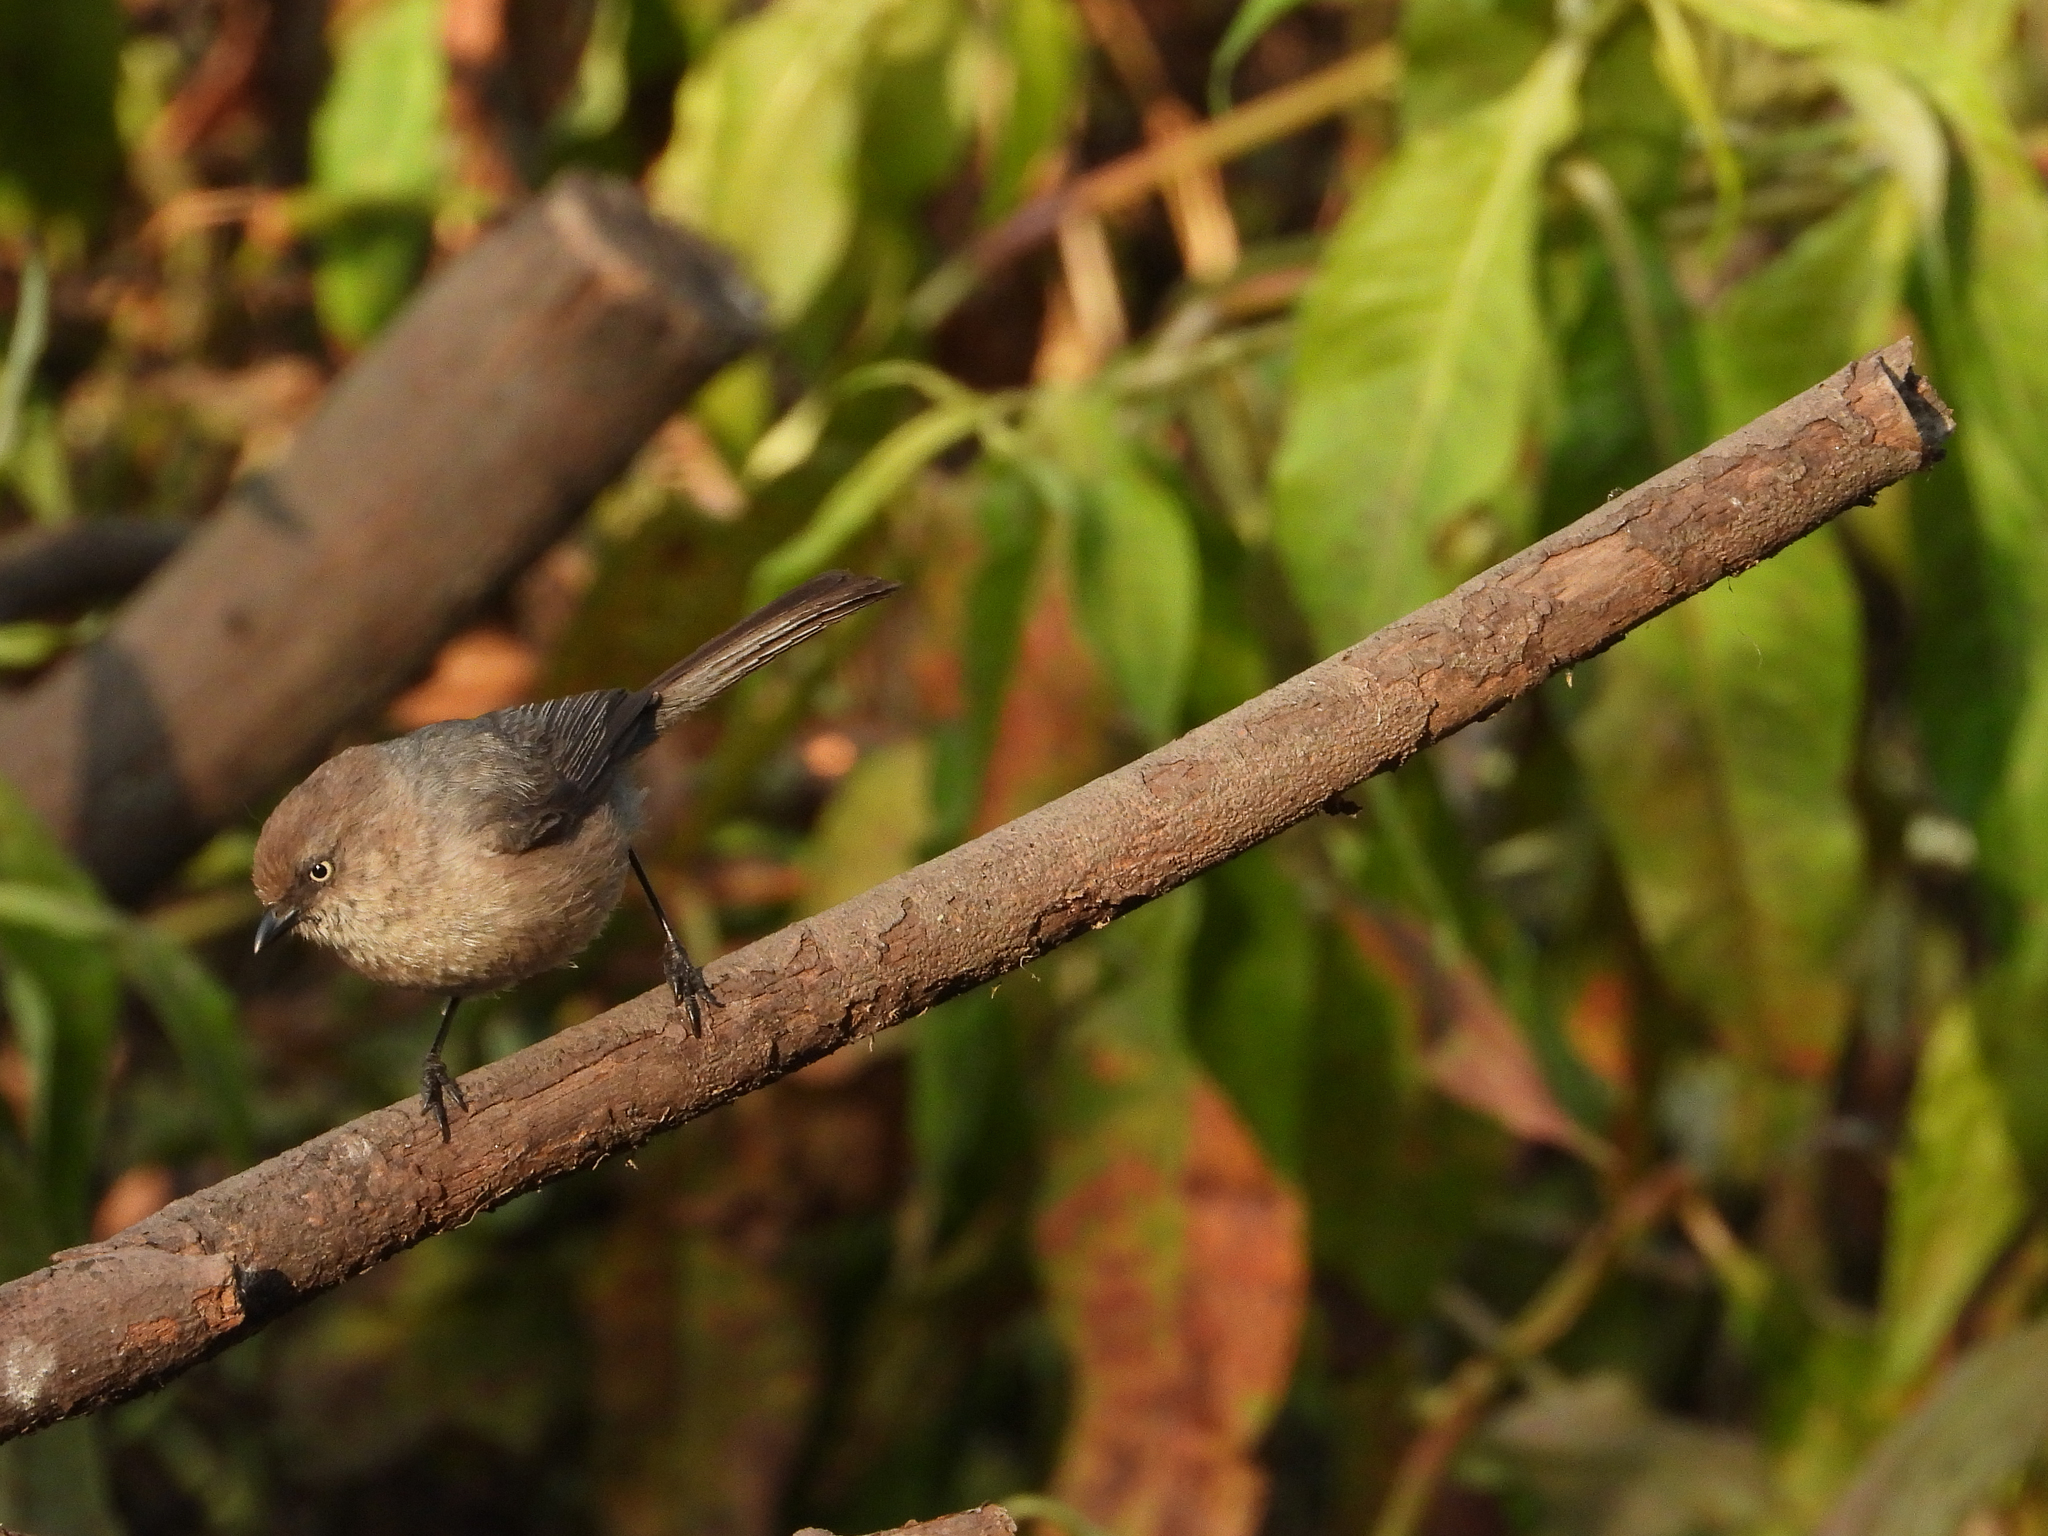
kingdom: Animalia
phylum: Chordata
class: Aves
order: Passeriformes
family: Aegithalidae
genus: Psaltriparus
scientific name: Psaltriparus minimus
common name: American bushtit
